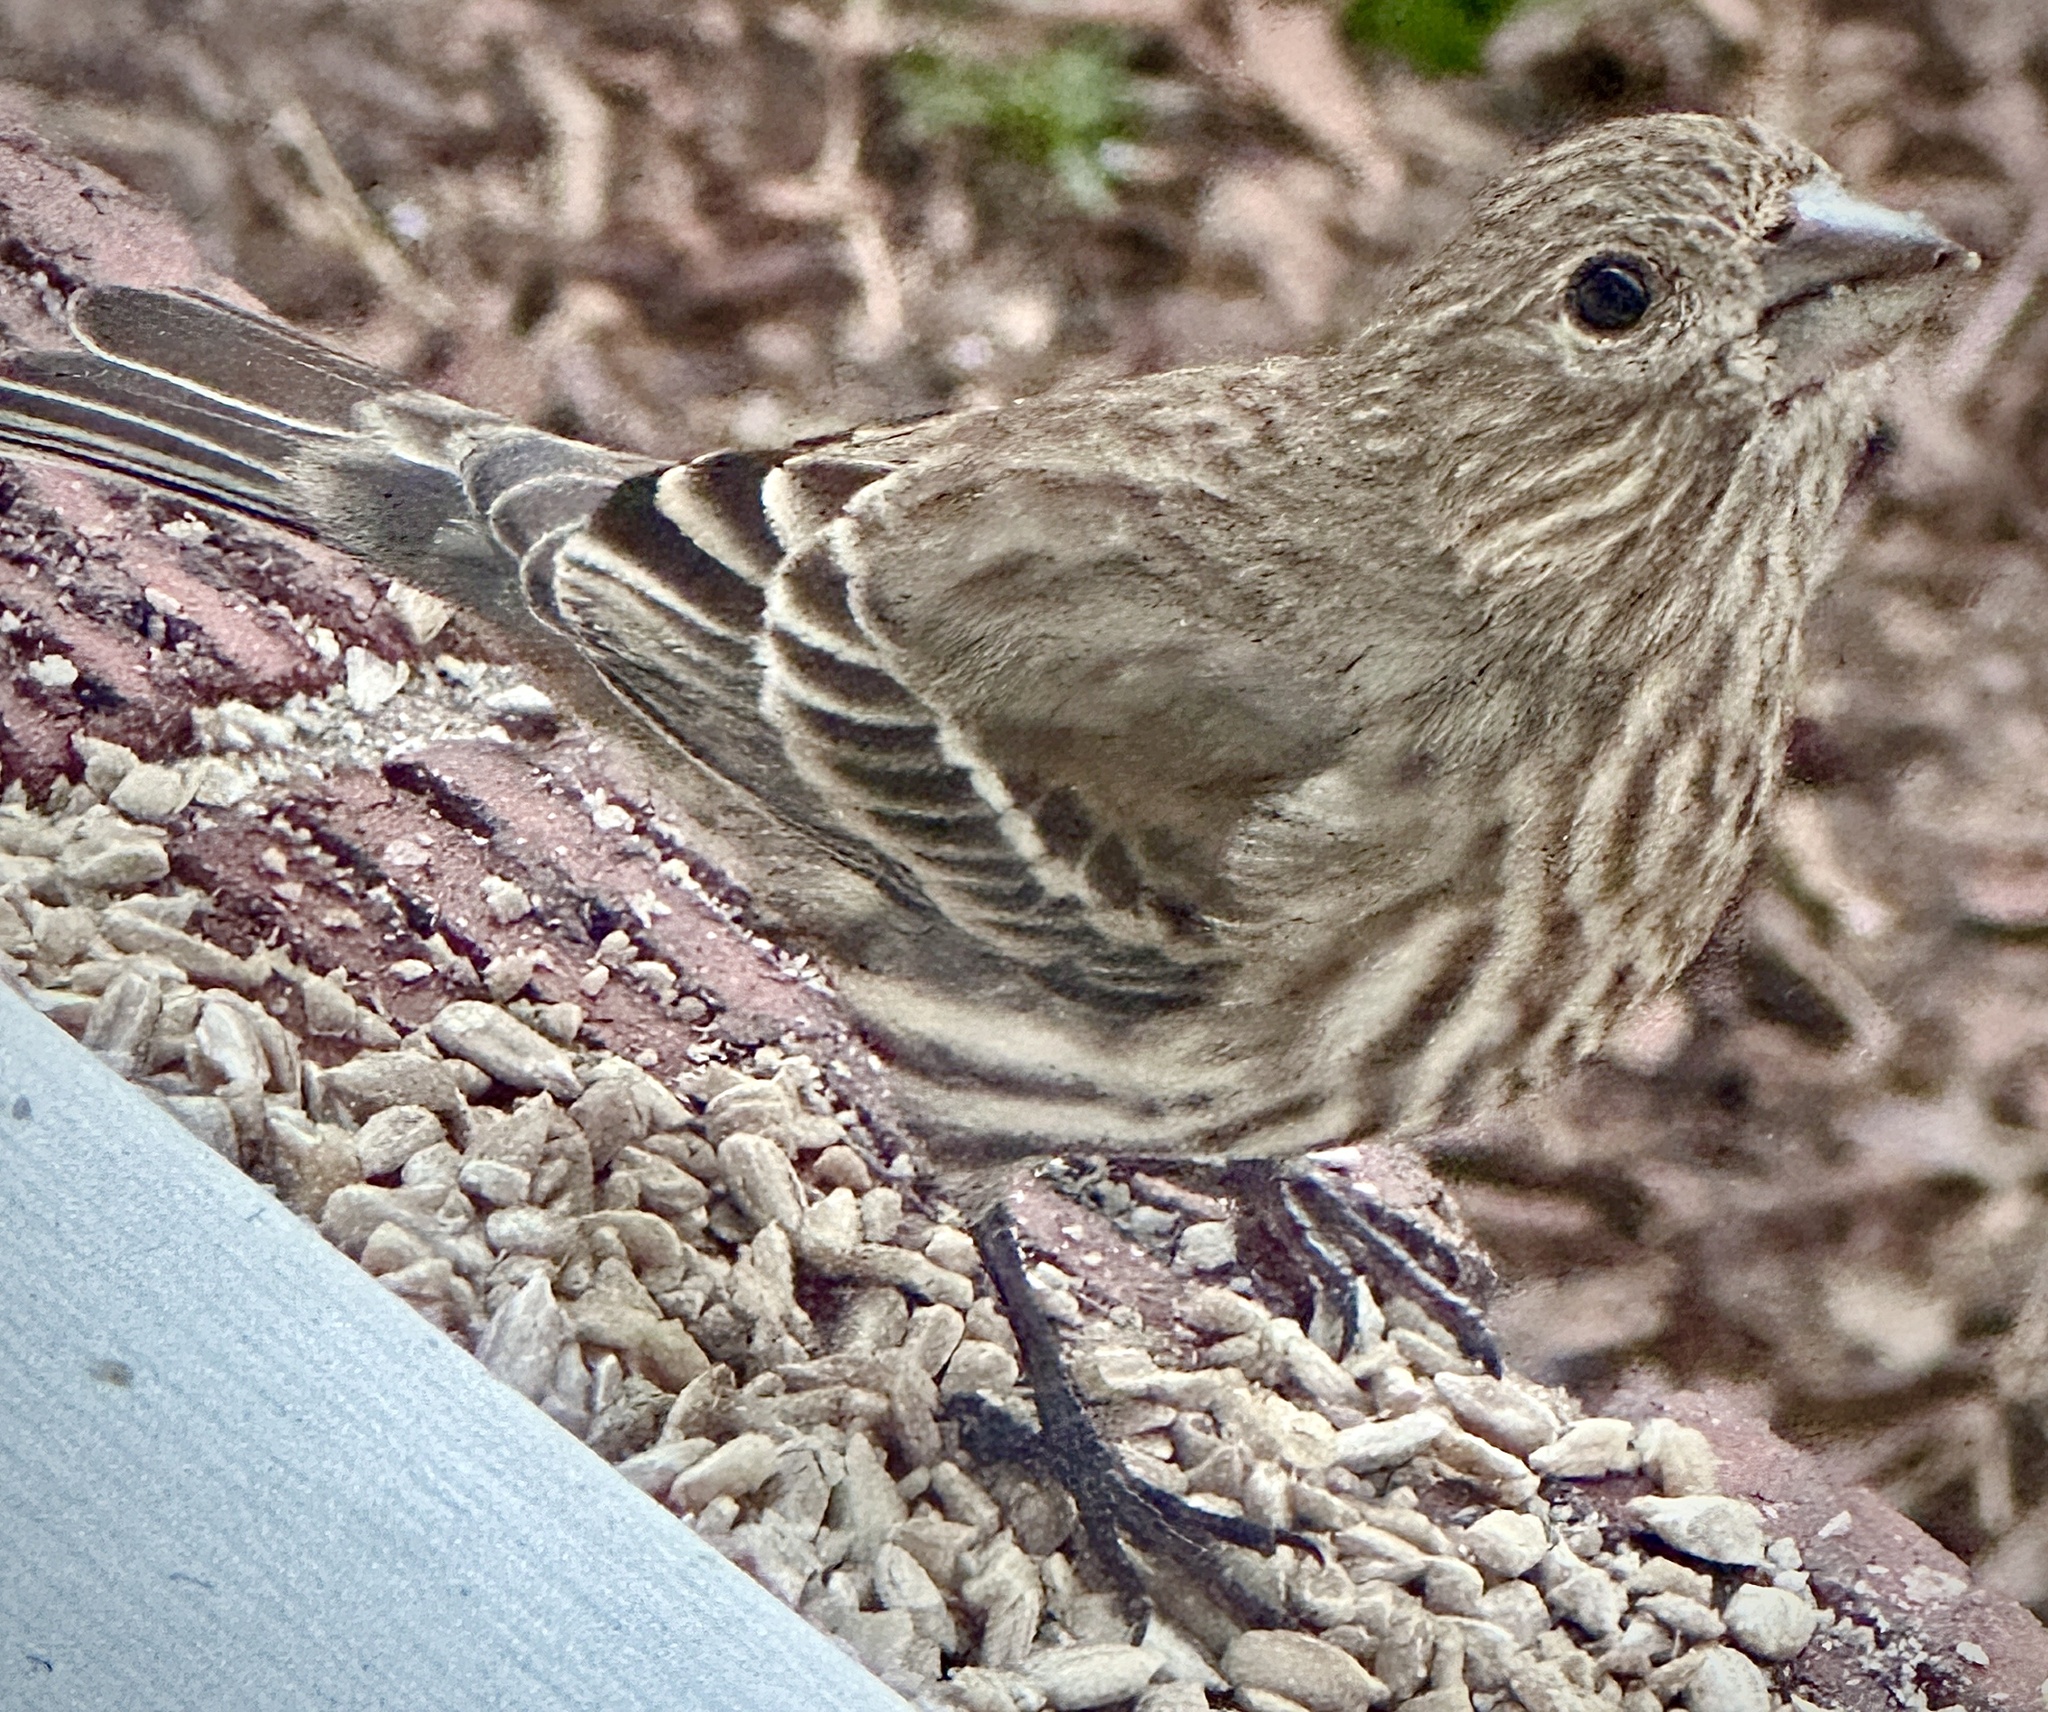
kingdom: Animalia
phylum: Chordata
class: Aves
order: Passeriformes
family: Fringillidae
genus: Haemorhous
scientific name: Haemorhous mexicanus
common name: House finch
